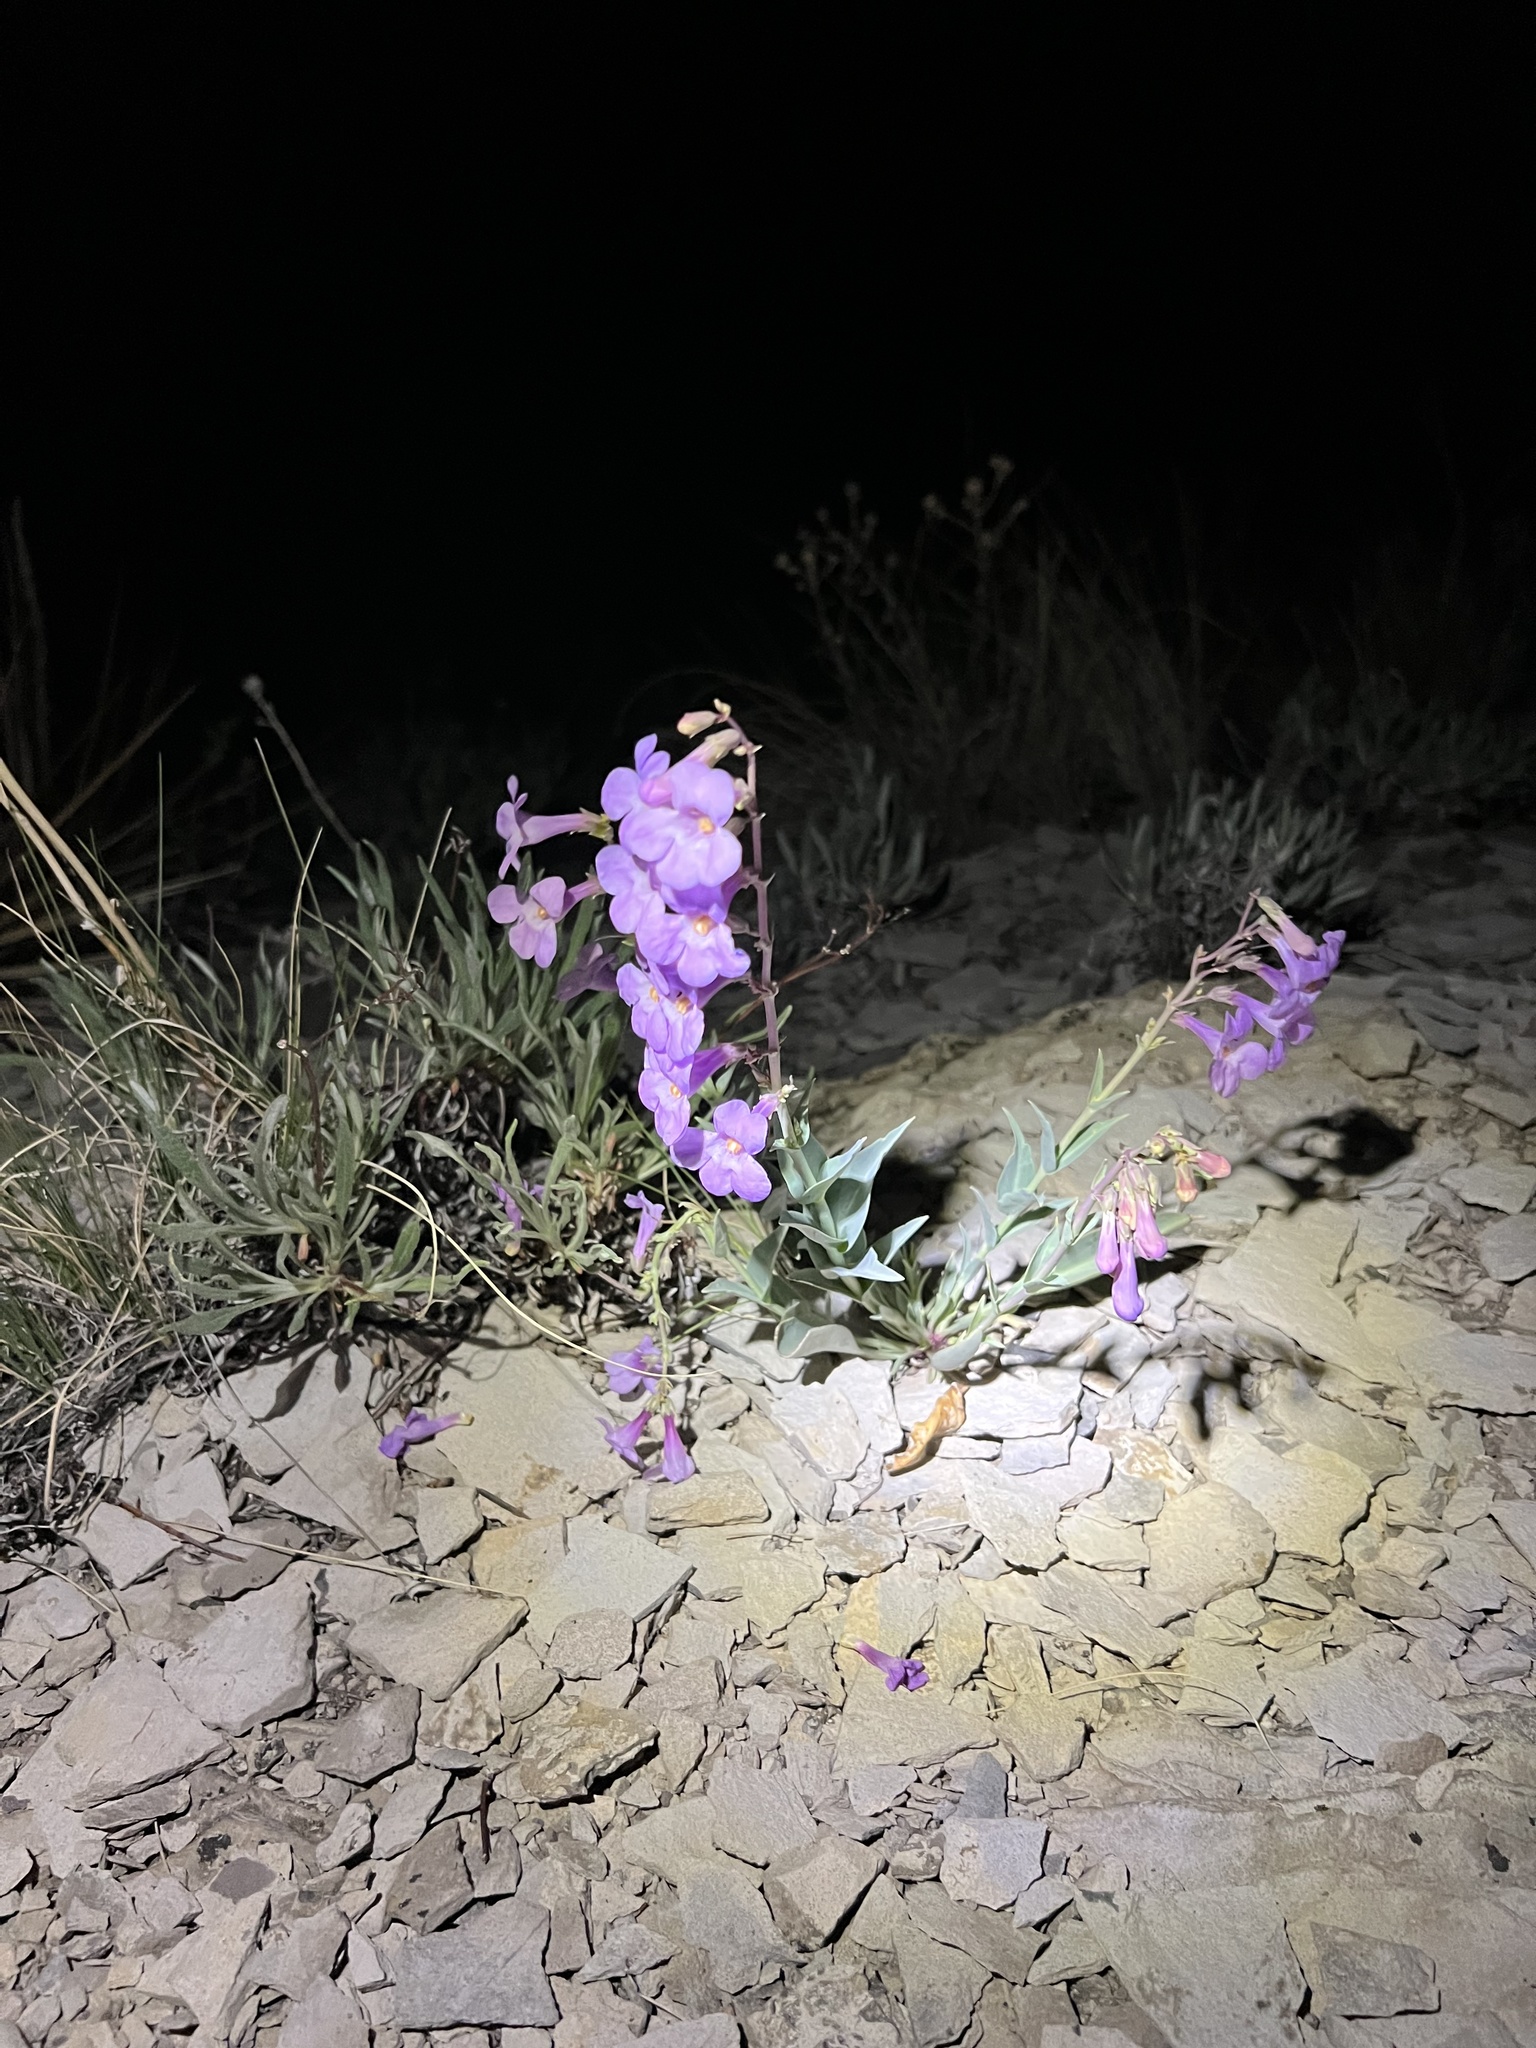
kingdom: Plantae
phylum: Tracheophyta
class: Magnoliopsida
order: Lamiales
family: Plantaginaceae
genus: Penstemon
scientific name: Penstemon secundiflorus
